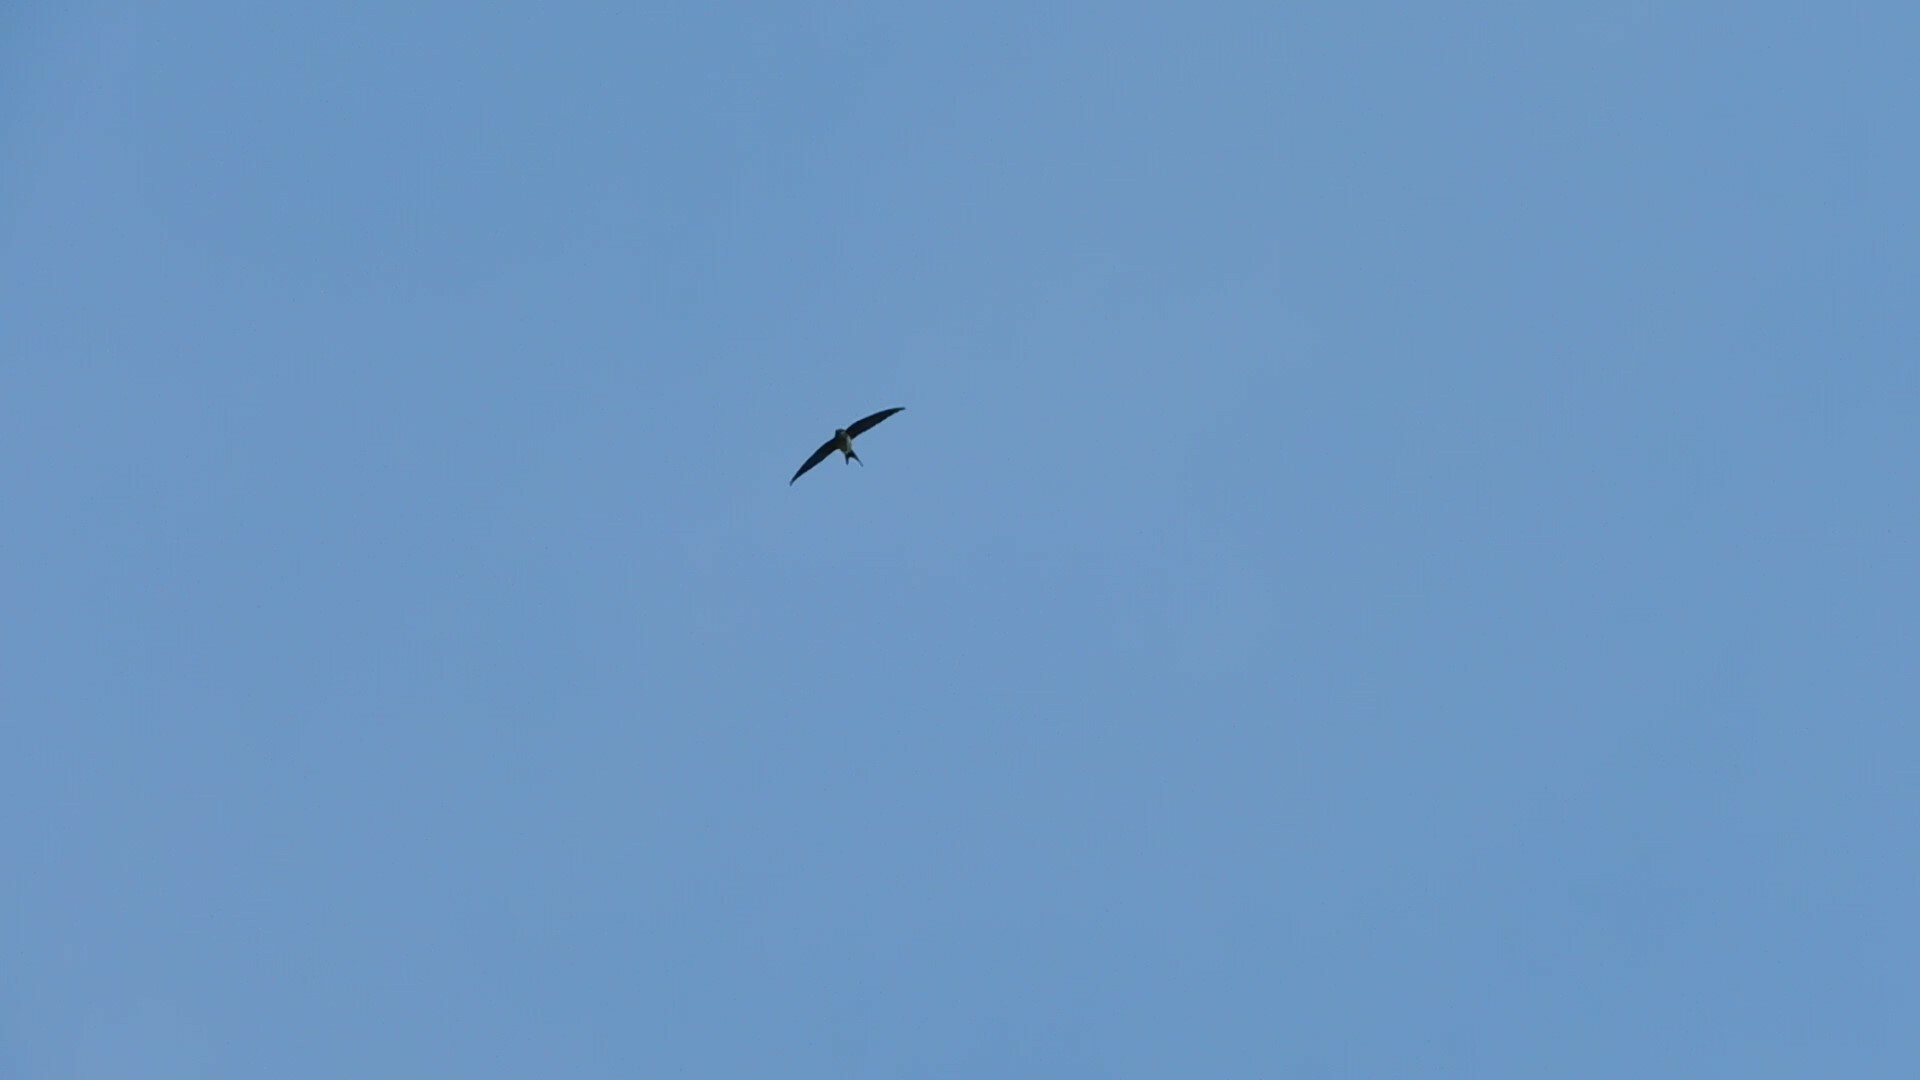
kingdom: Animalia
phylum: Chordata
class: Aves
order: Apodiformes
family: Hemiprocnidae
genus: Hemiprocne
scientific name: Hemiprocne longipennis
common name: Grey-rumped treeswift
